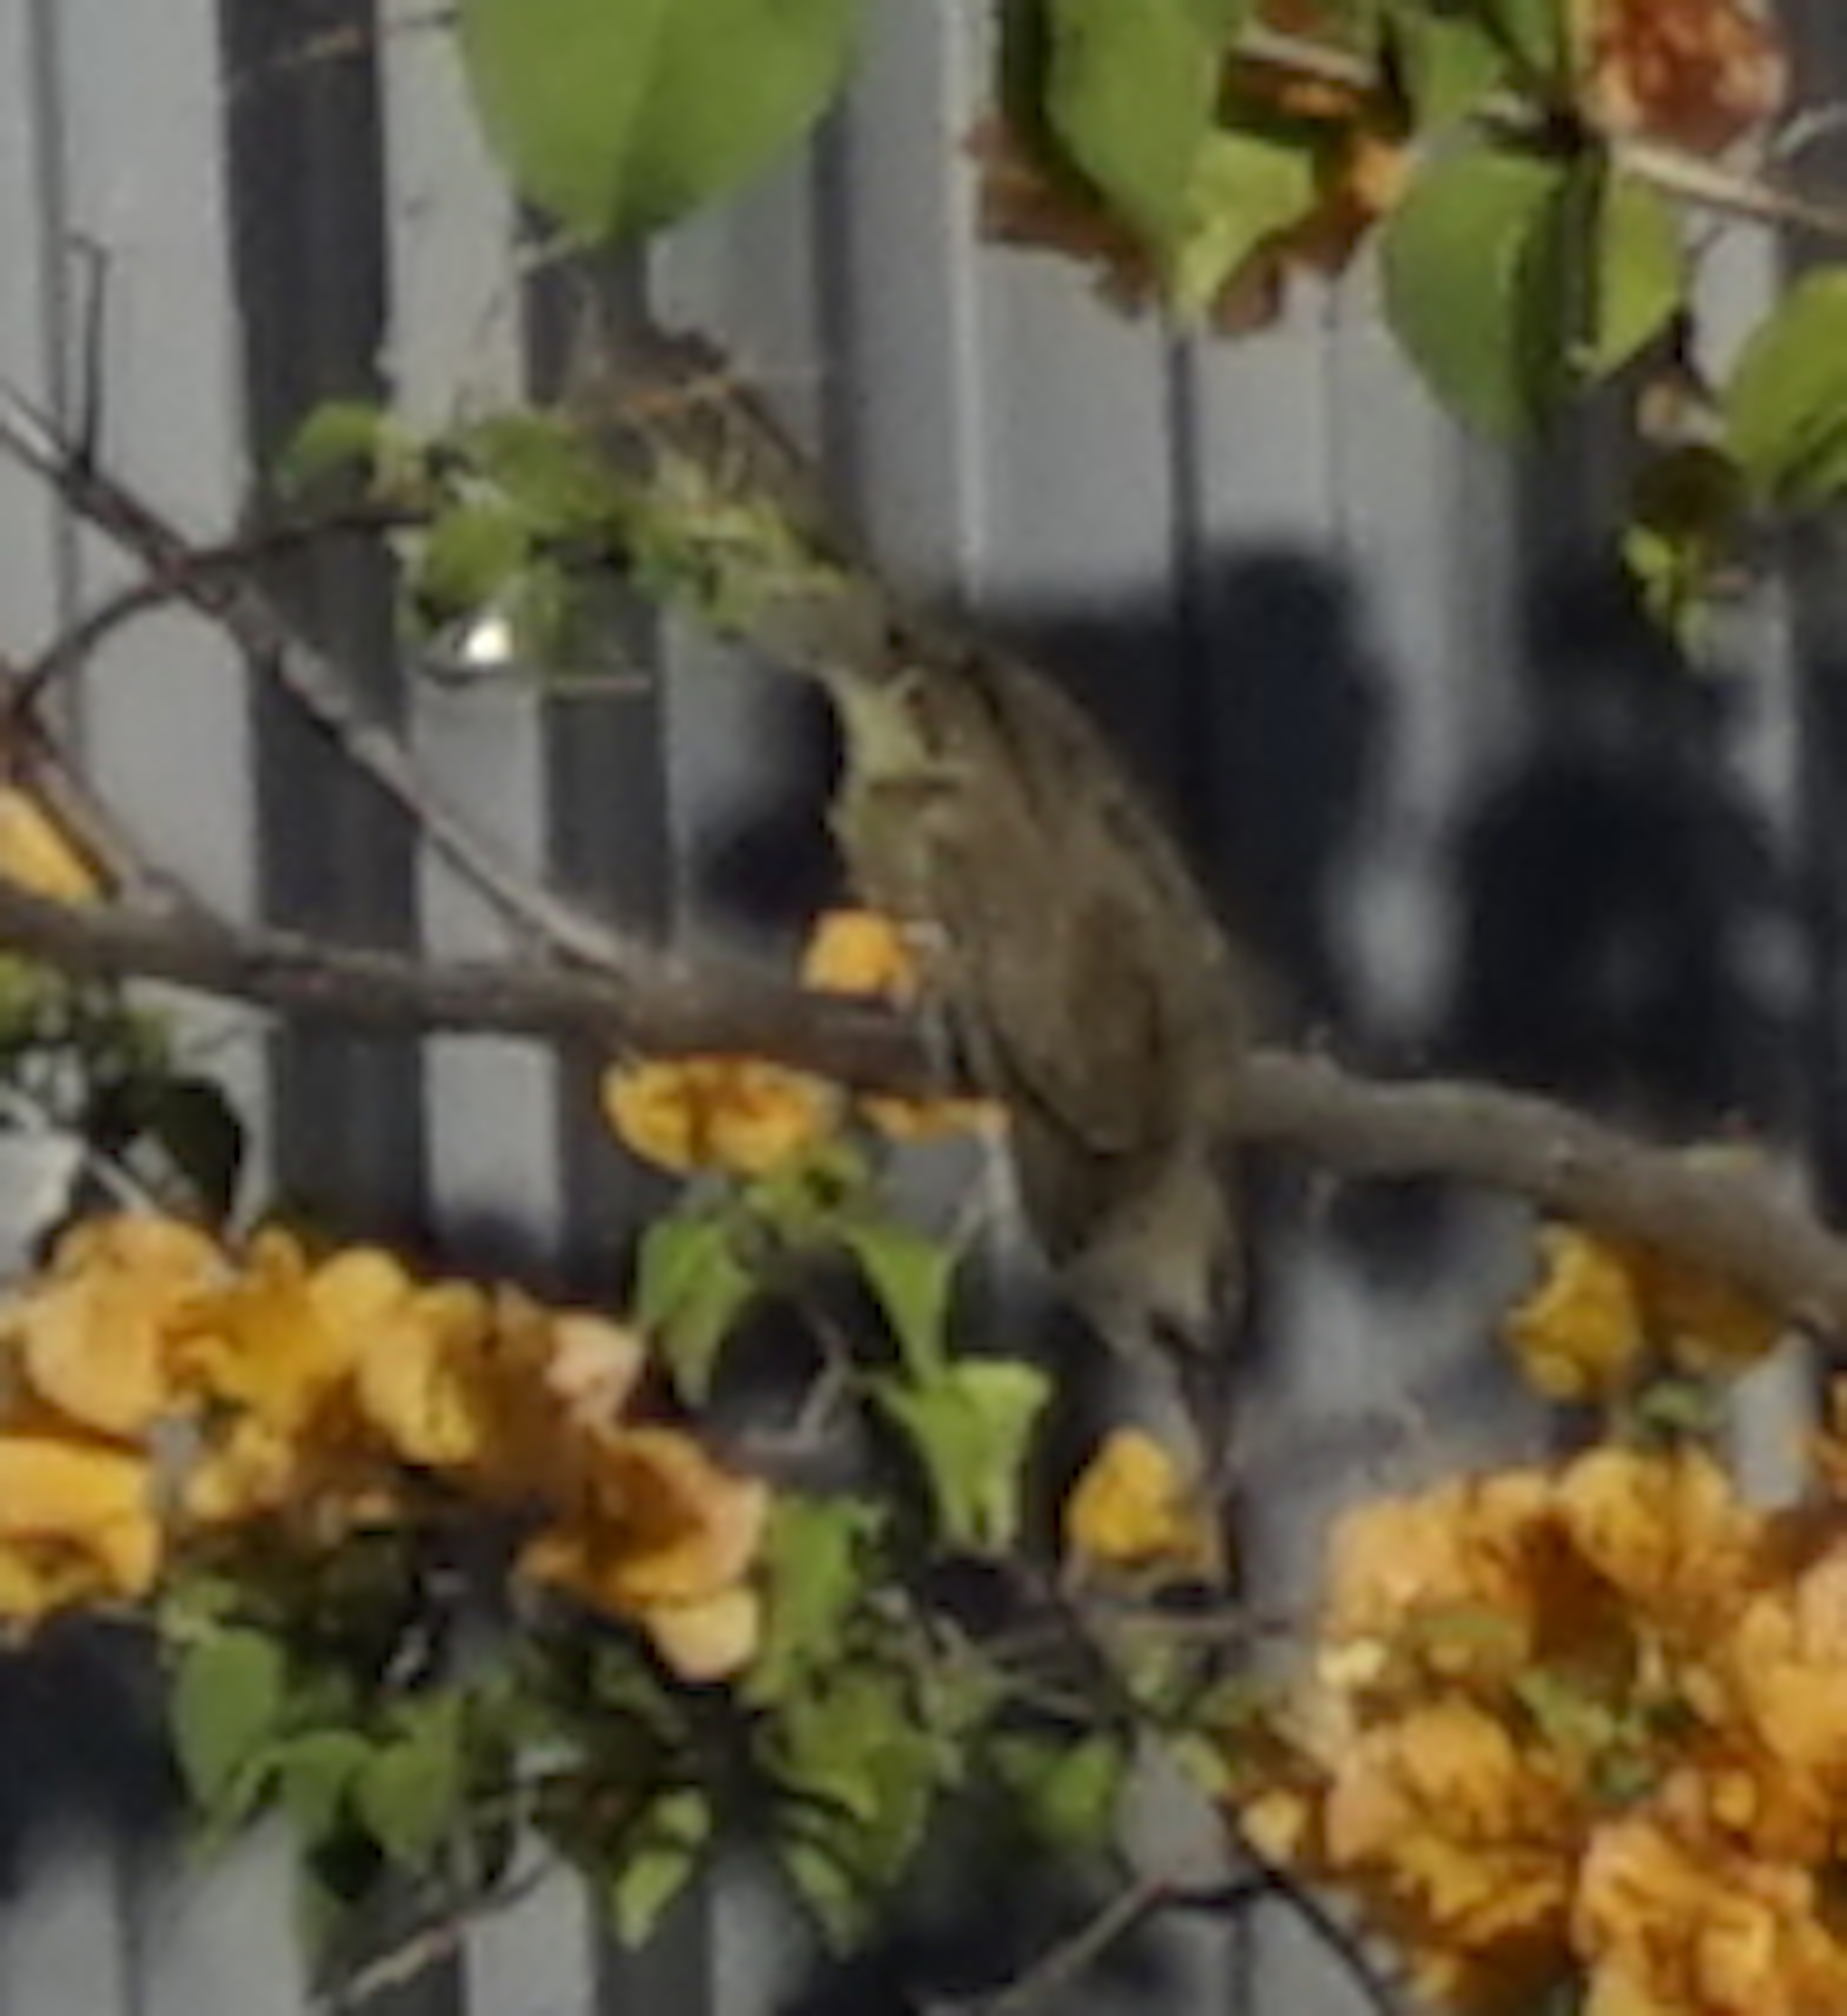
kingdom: Animalia
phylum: Chordata
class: Aves
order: Passeriformes
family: Pycnonotidae
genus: Pycnonotus
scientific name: Pycnonotus goiavier
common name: Yellow-vented bulbul
